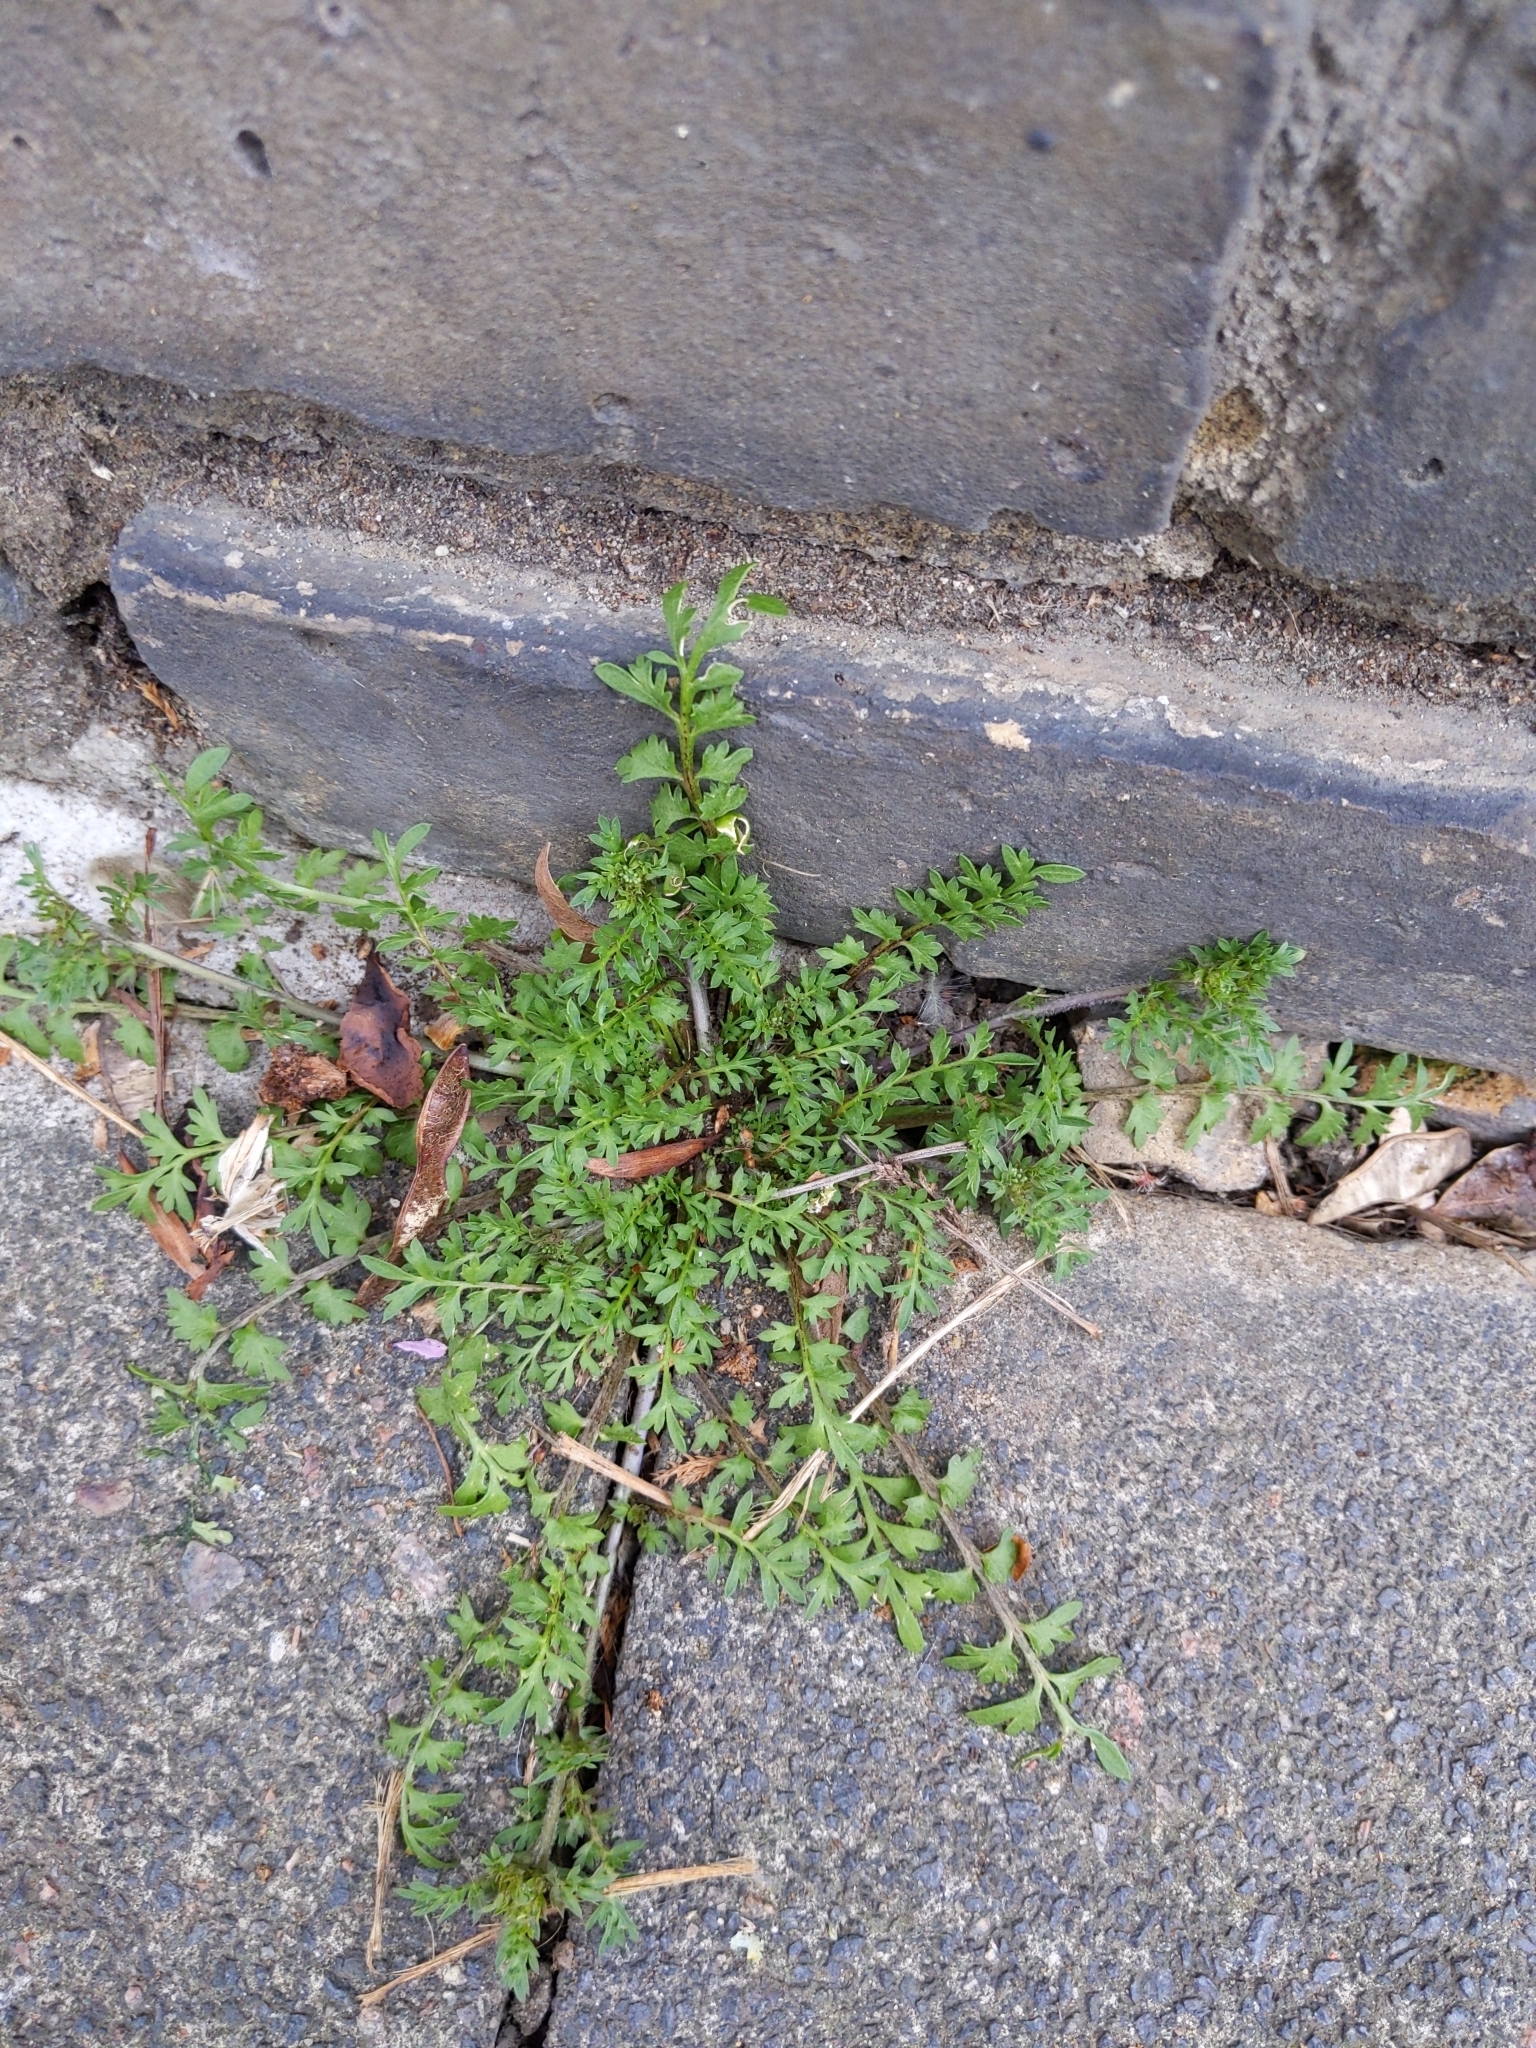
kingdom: Plantae
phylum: Tracheophyta
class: Magnoliopsida
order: Brassicales
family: Brassicaceae
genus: Lepidium
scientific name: Lepidium didymum
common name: Lesser swinecress
